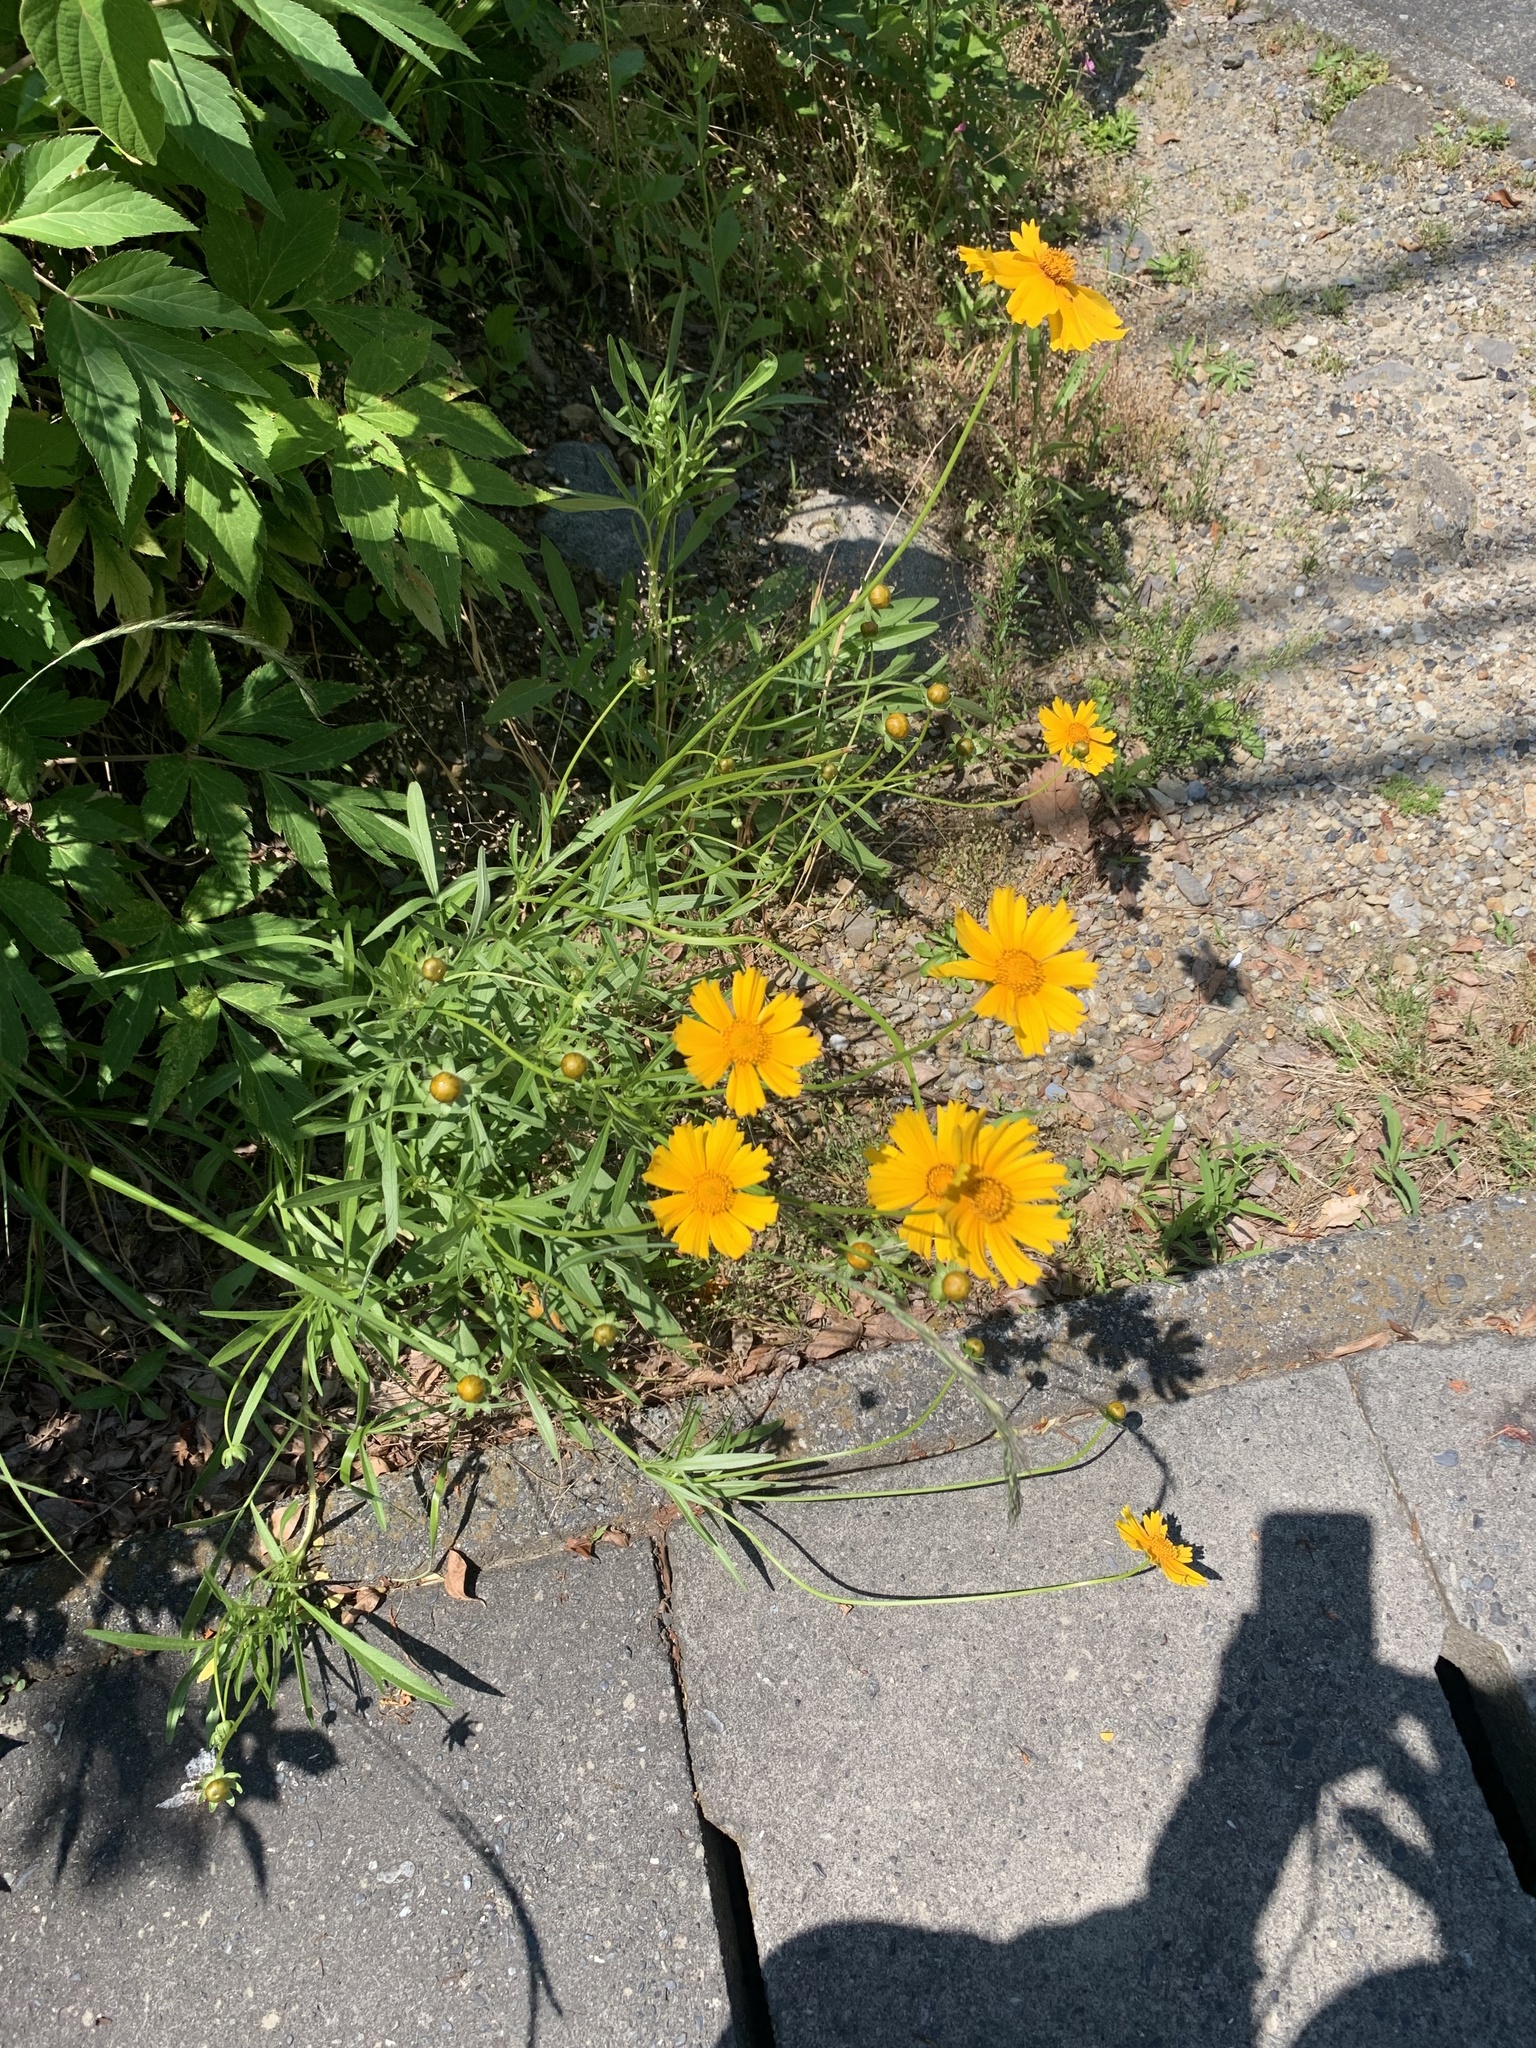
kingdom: Plantae
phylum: Tracheophyta
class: Magnoliopsida
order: Asterales
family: Asteraceae
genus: Coreopsis
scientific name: Coreopsis lanceolata
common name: Garden coreopsis
